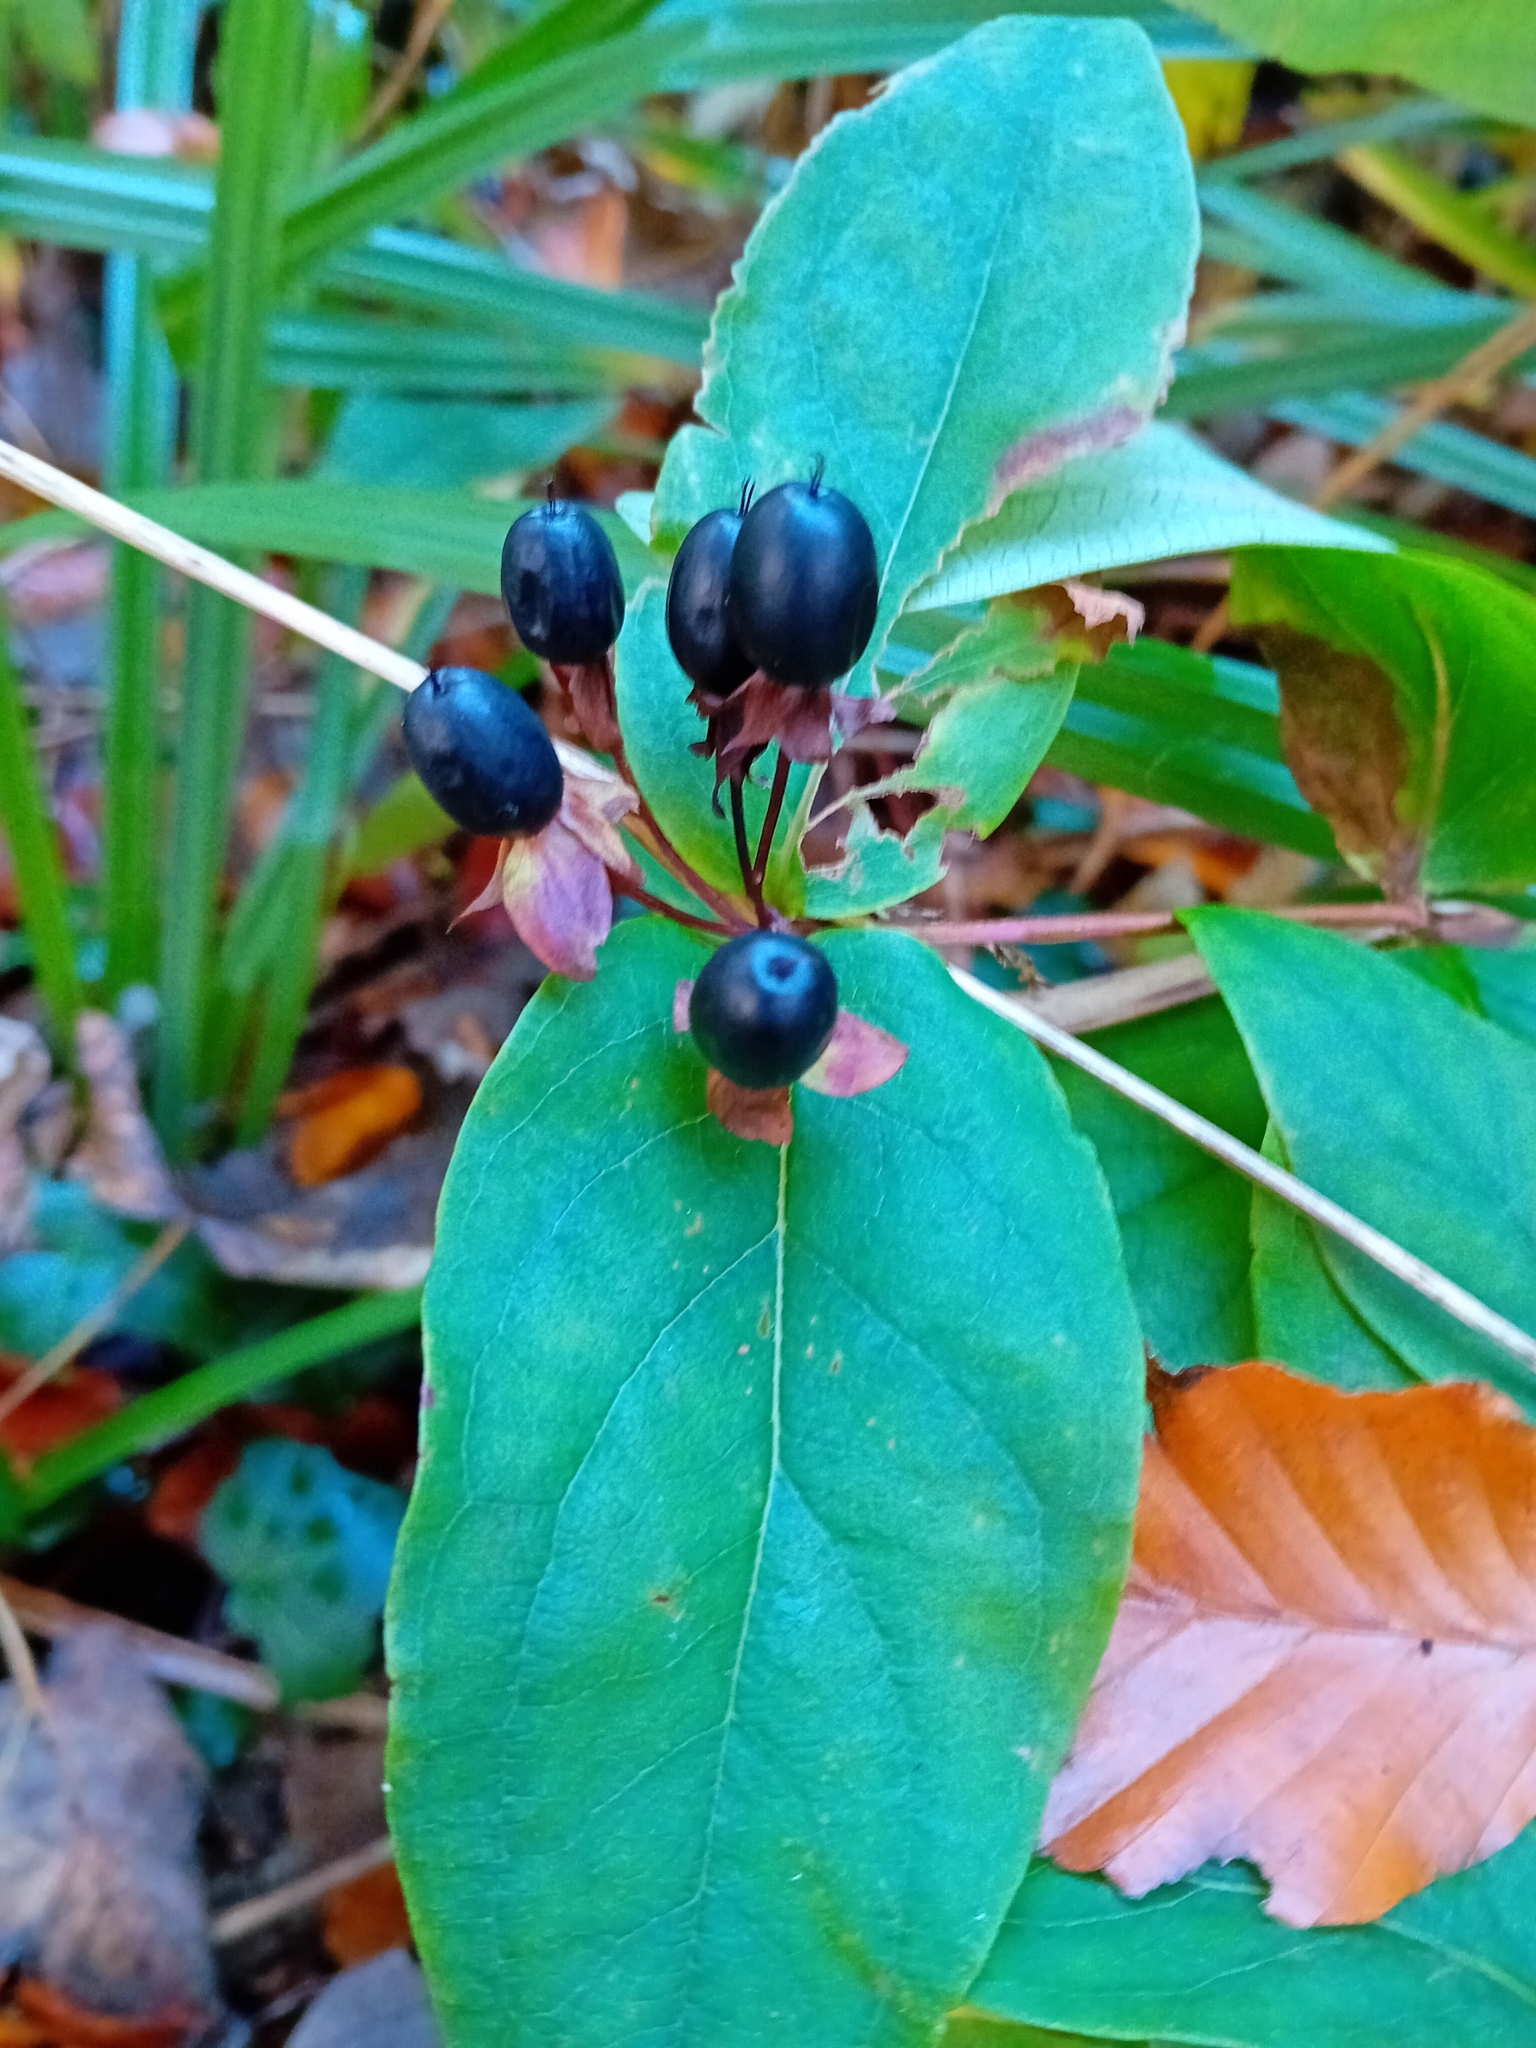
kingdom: Plantae
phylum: Tracheophyta
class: Magnoliopsida
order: Malpighiales
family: Hypericaceae
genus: Hypericum
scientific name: Hypericum androsaemum
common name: Sweet-amber
